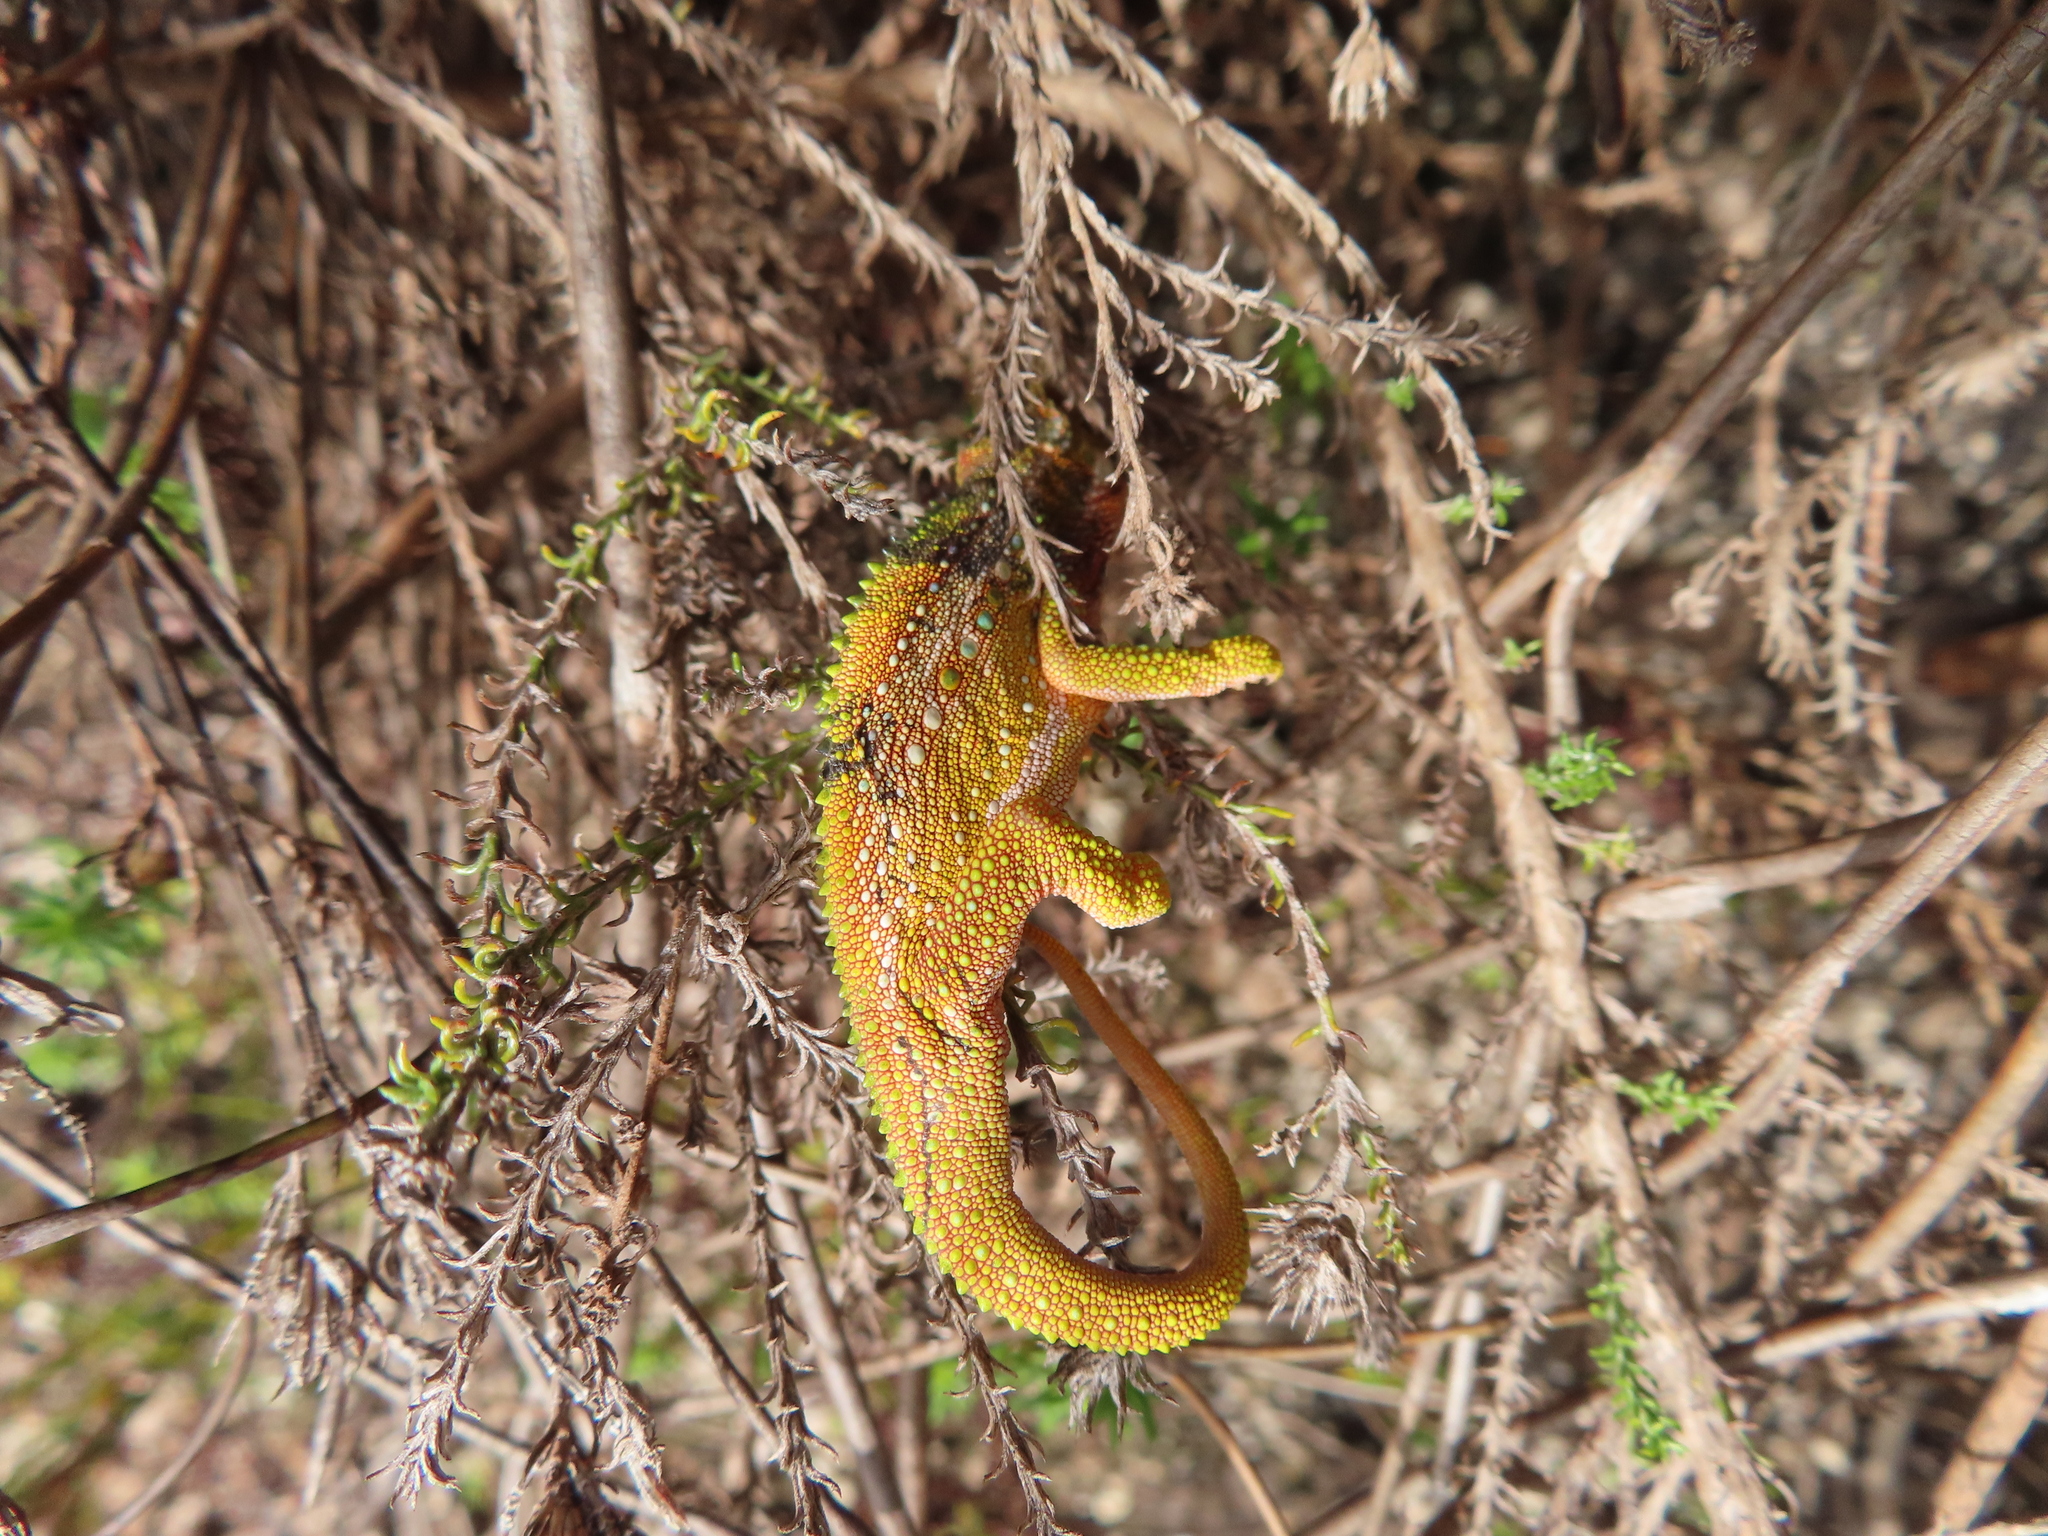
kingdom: Animalia
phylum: Chordata
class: Squamata
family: Chamaeleonidae
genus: Bradypodion
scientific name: Bradypodion pumilum
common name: Cape dwarf chameleon
